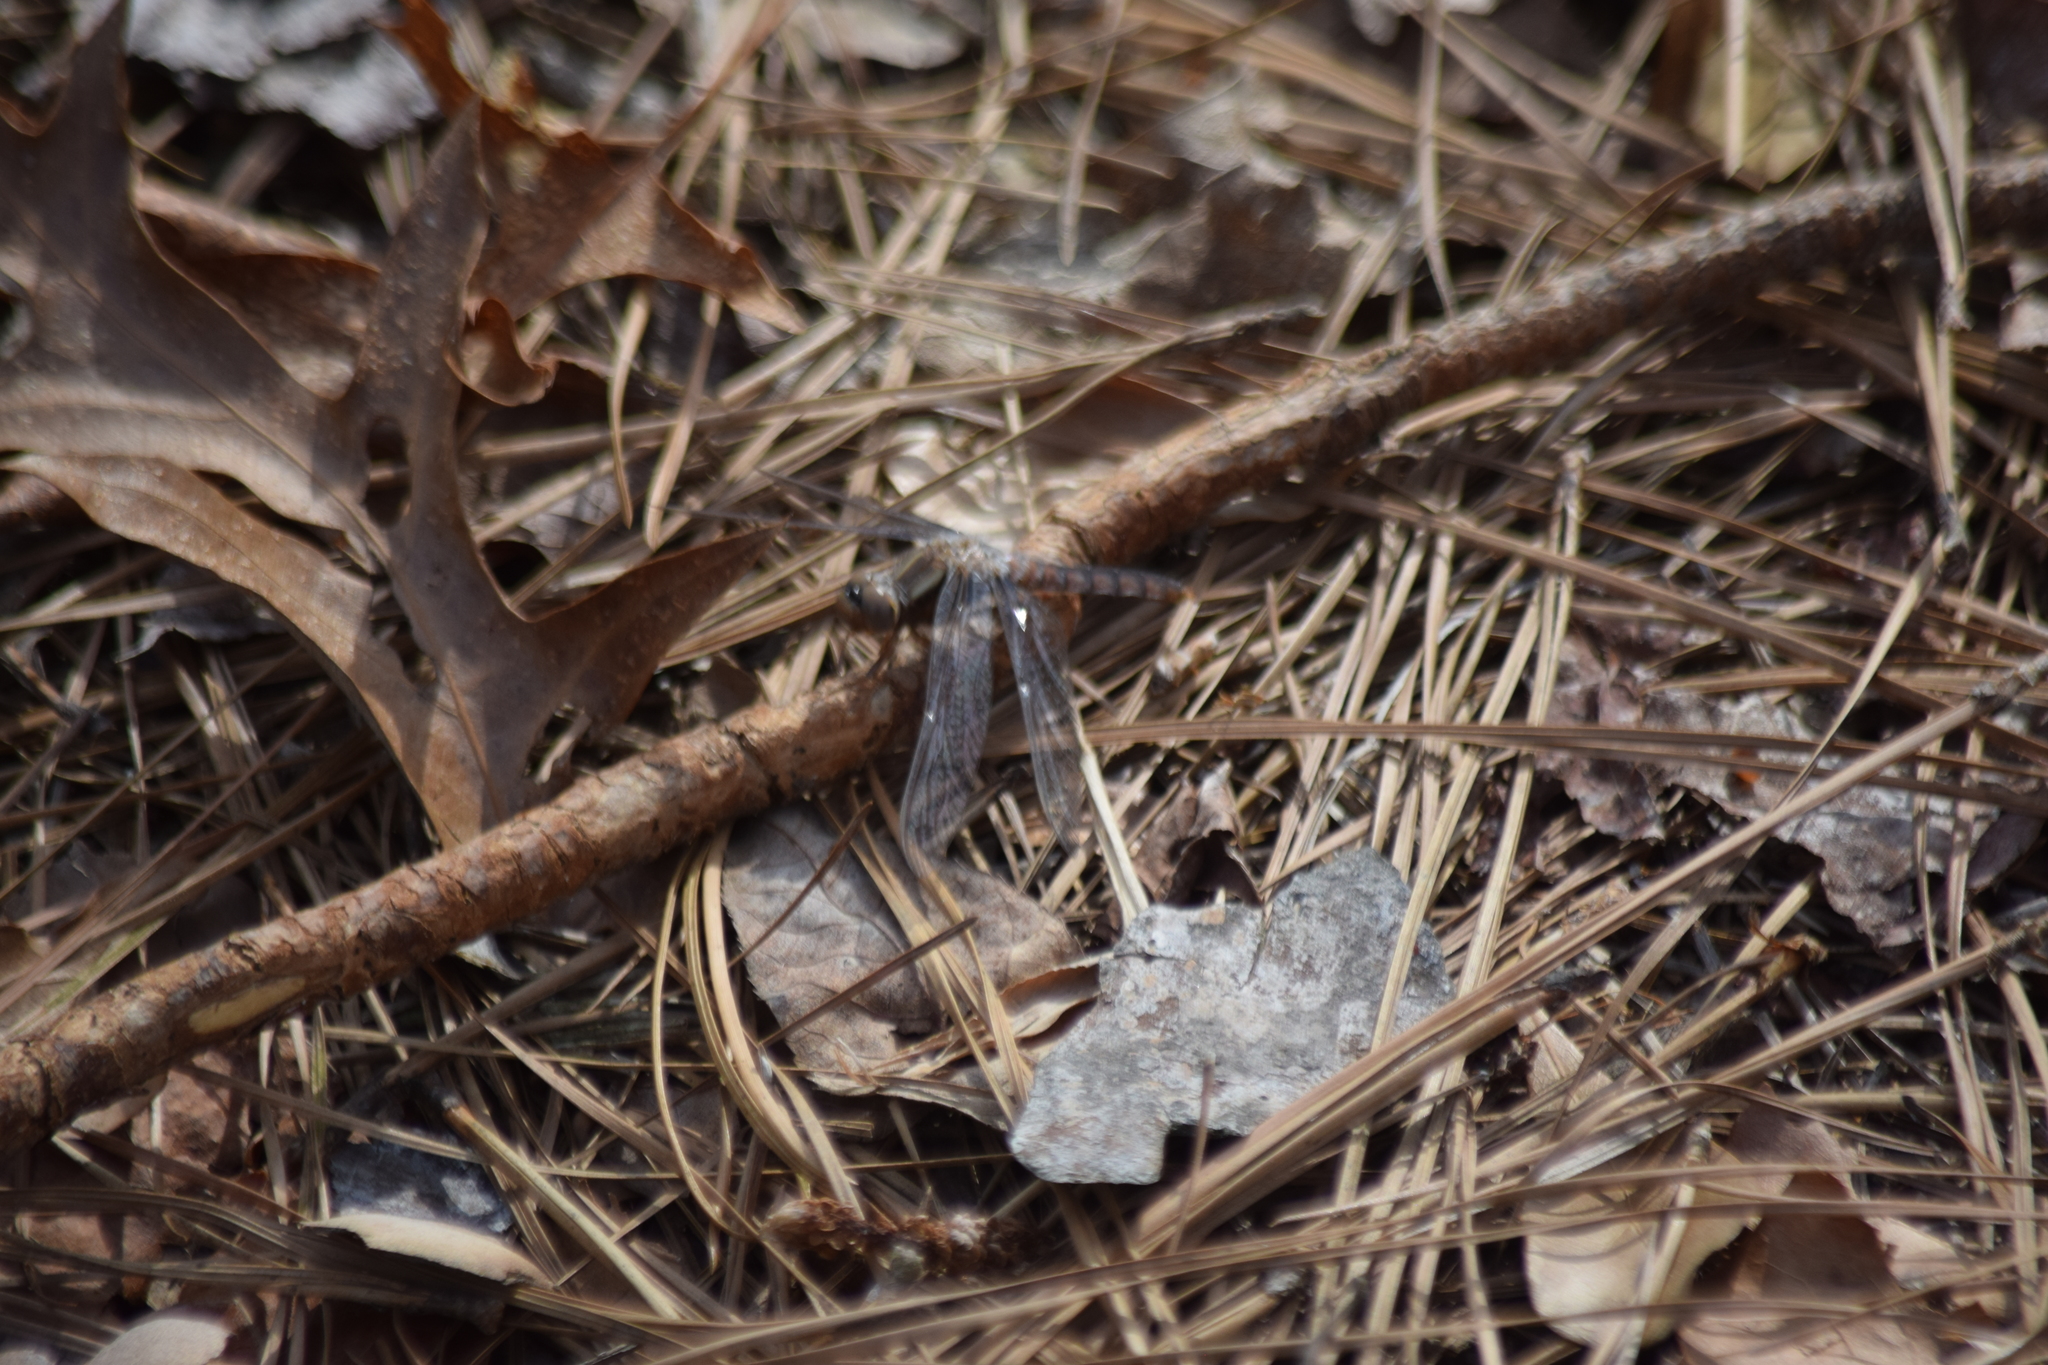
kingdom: Animalia
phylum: Arthropoda
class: Insecta
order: Odonata
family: Libellulidae
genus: Ladona
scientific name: Ladona deplanata
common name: Blue corporal
